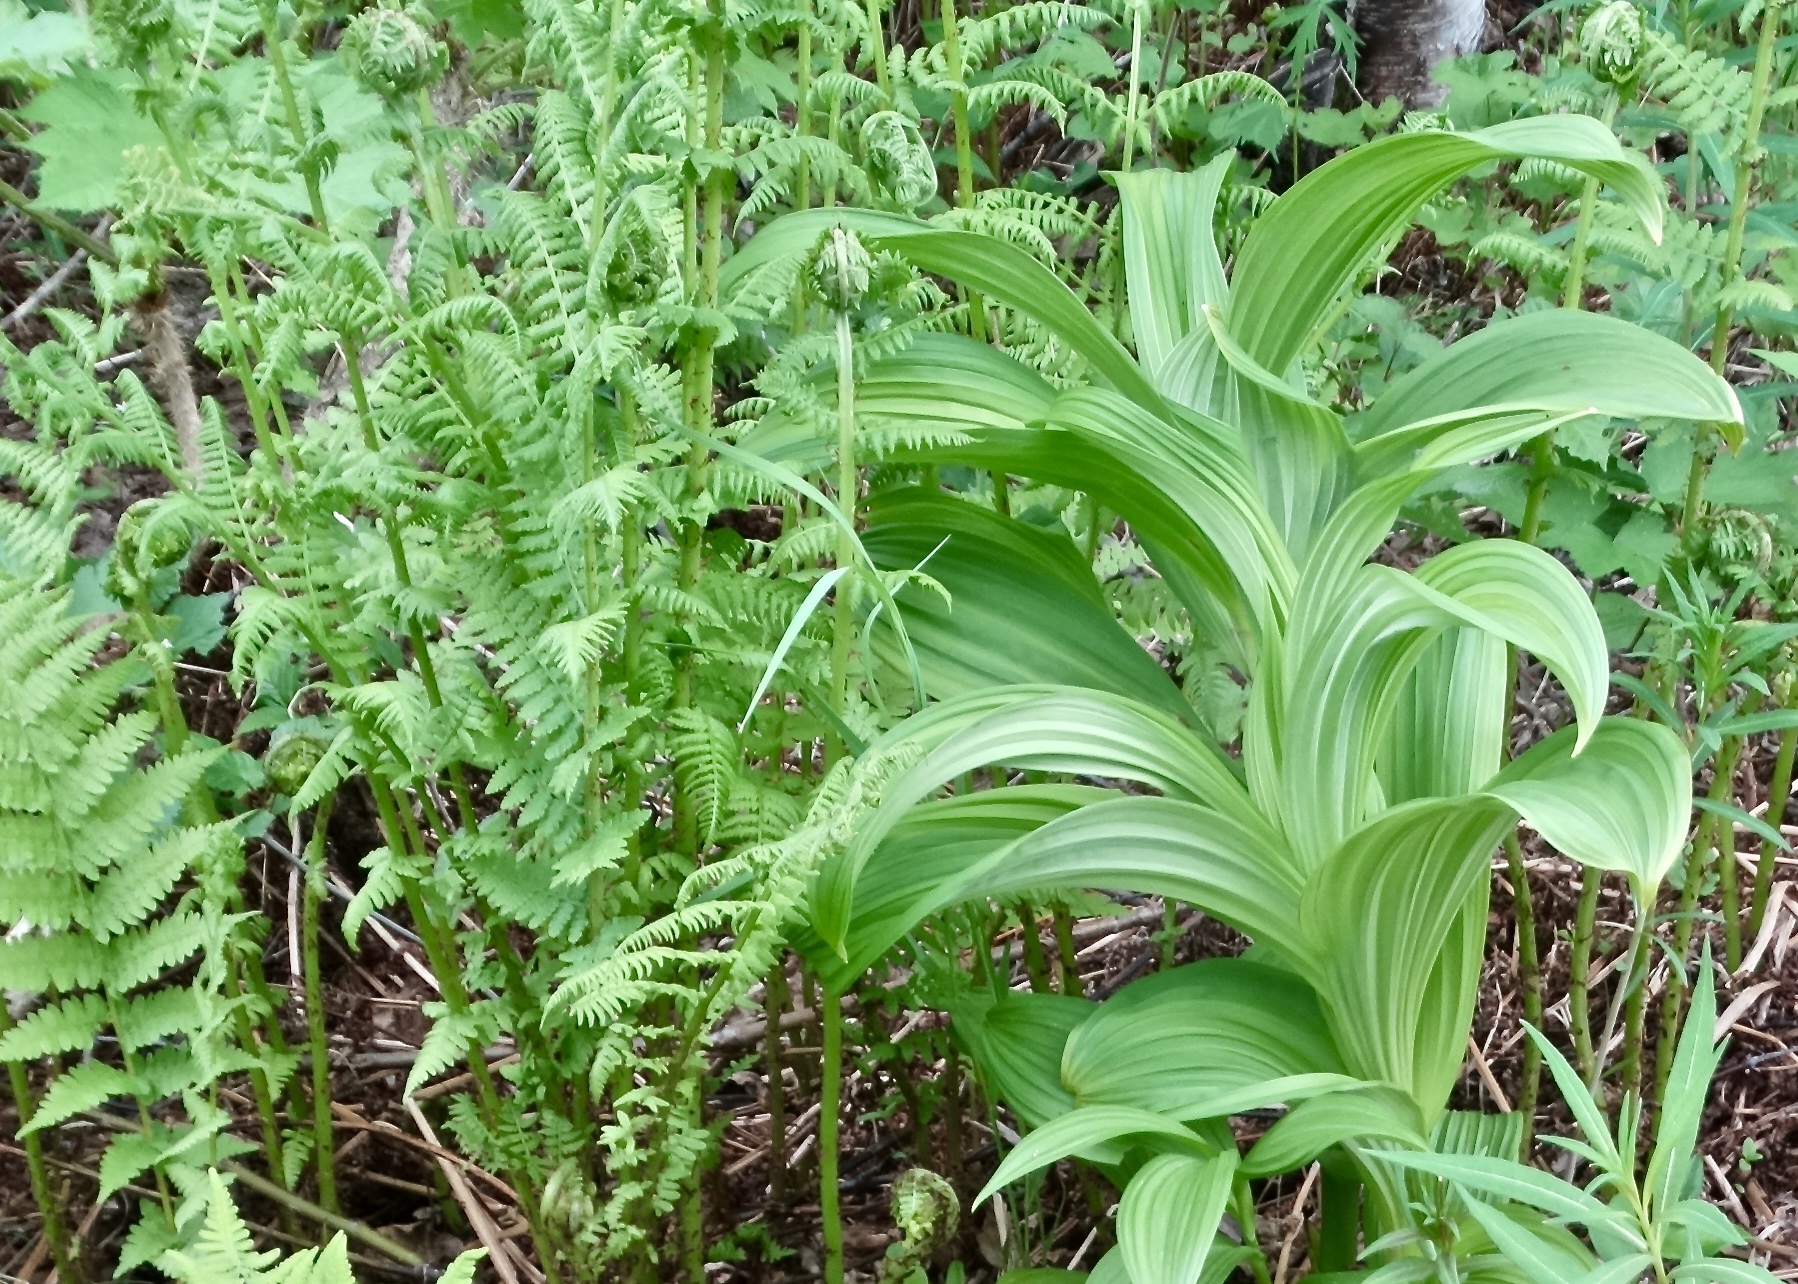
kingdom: Plantae
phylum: Tracheophyta
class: Liliopsida
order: Liliales
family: Melanthiaceae
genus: Veratrum
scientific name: Veratrum viride
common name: American false hellebore
